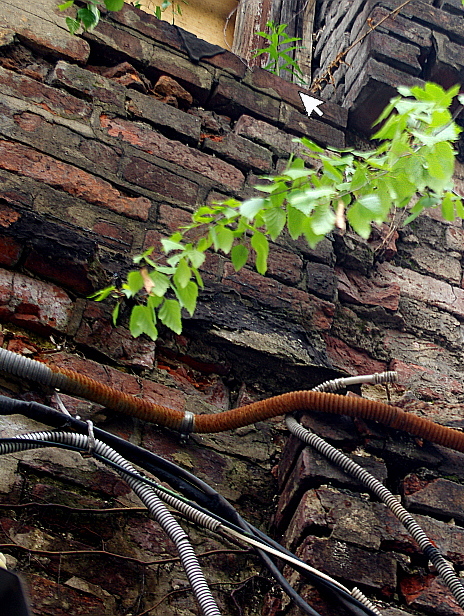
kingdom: Plantae
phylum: Tracheophyta
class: Magnoliopsida
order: Myrtales
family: Onagraceae
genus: Chamaenerion
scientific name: Chamaenerion angustifolium
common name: Fireweed
